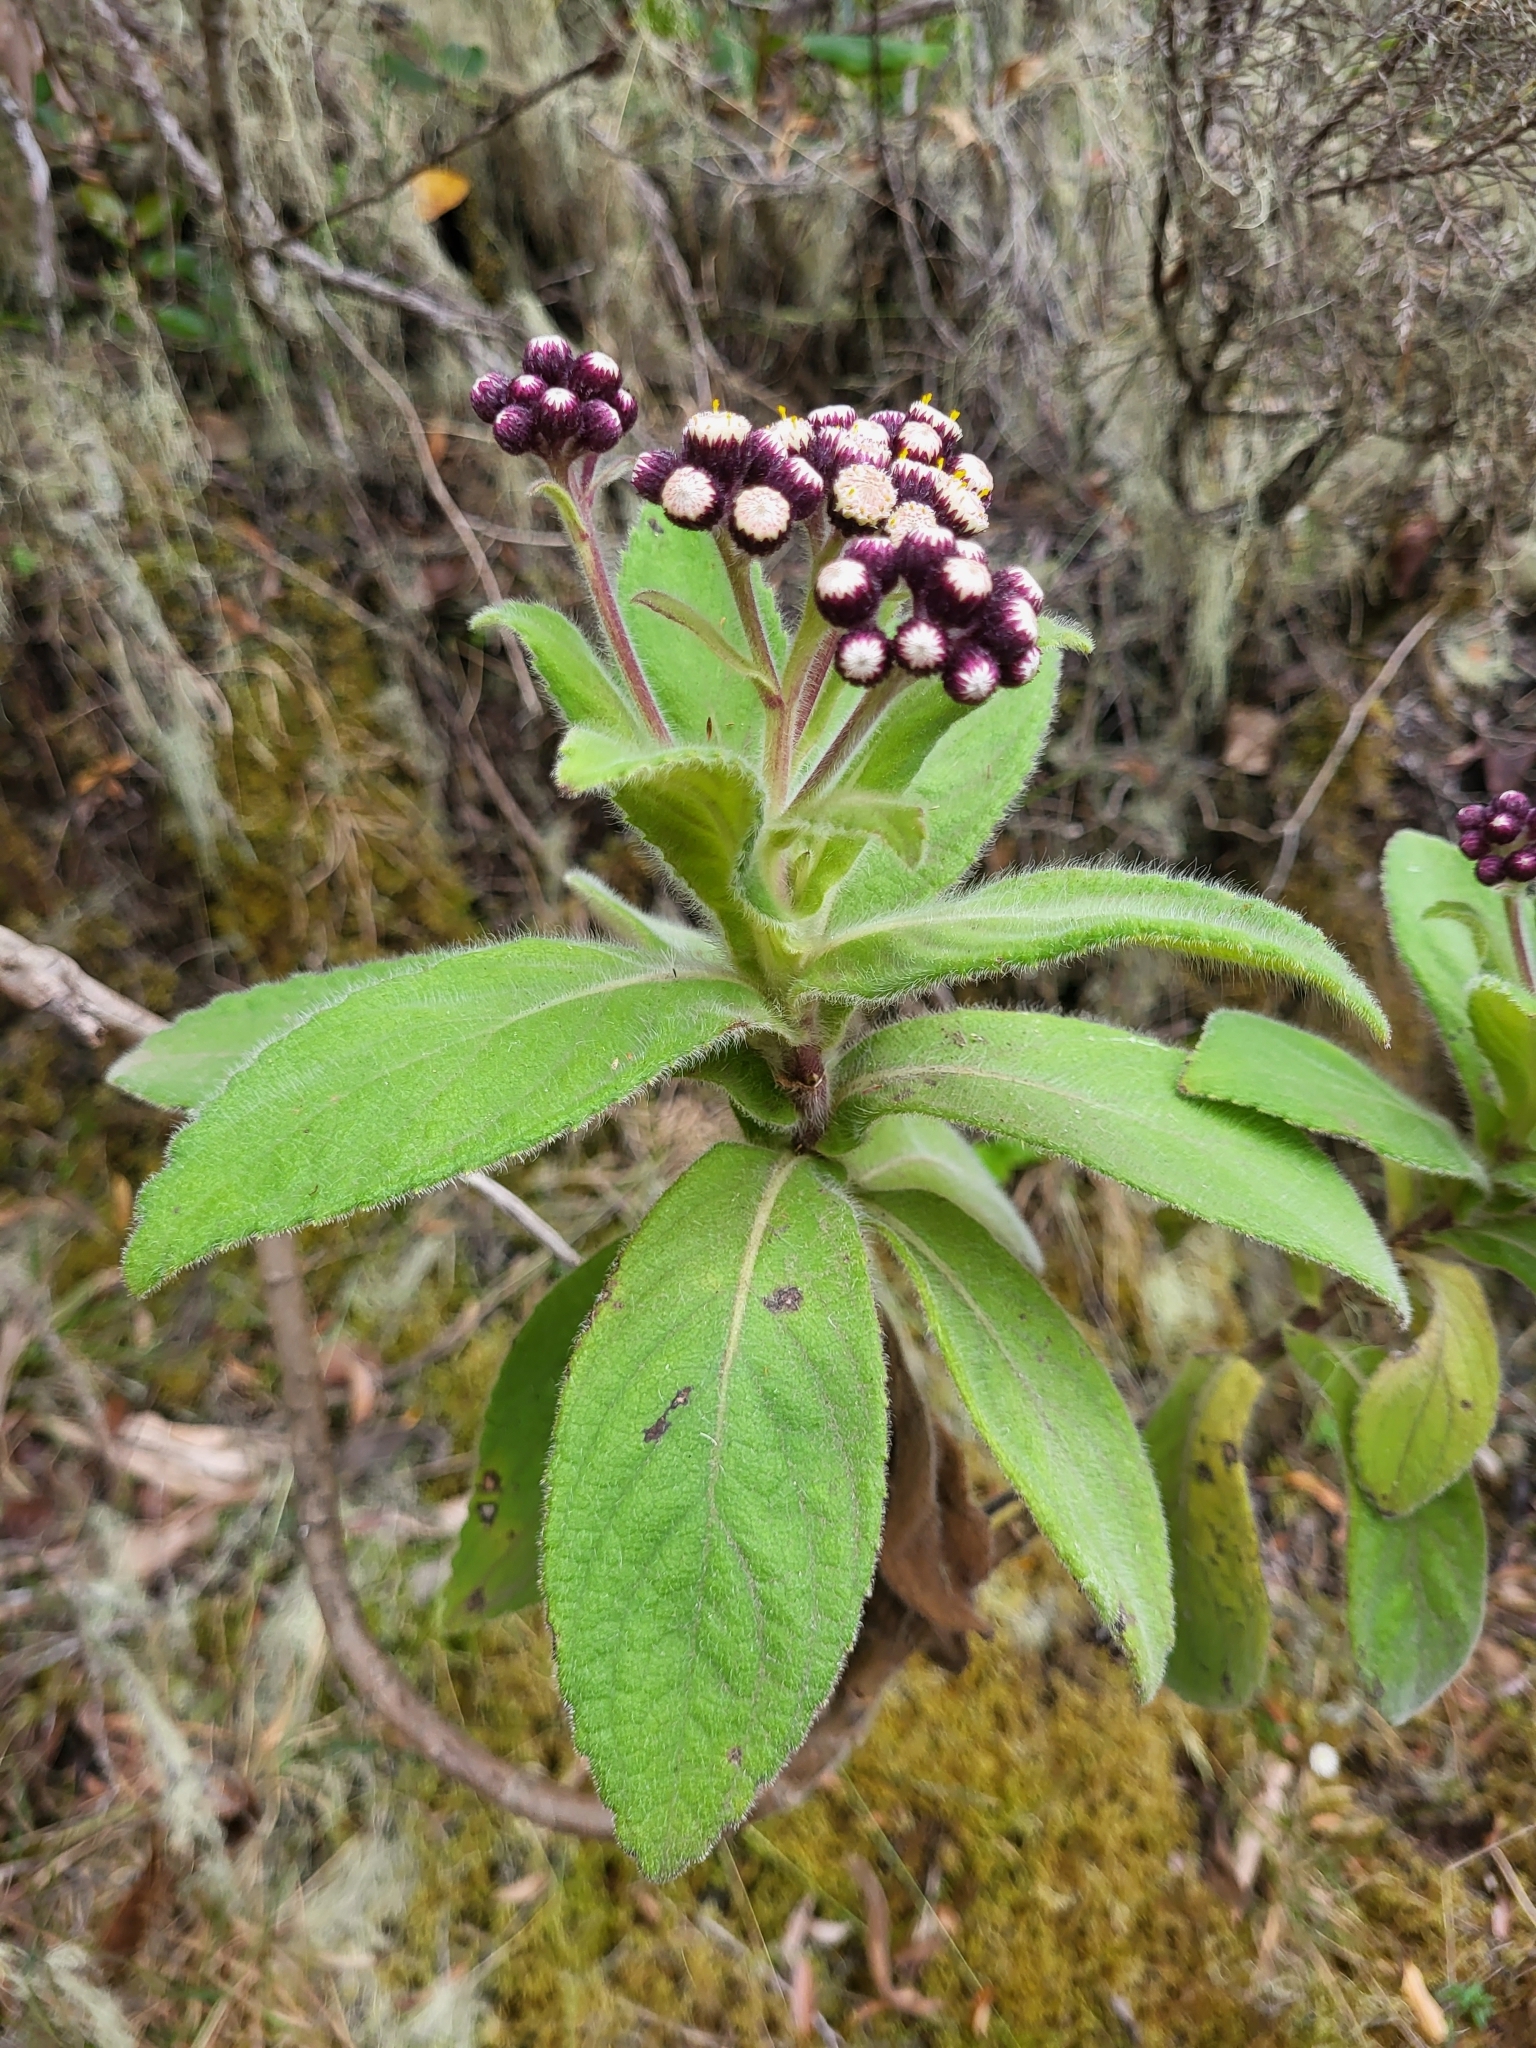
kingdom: Plantae
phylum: Tracheophyta
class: Magnoliopsida
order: Asterales
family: Asteraceae
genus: Psiadia
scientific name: Psiadia anchusifolia
